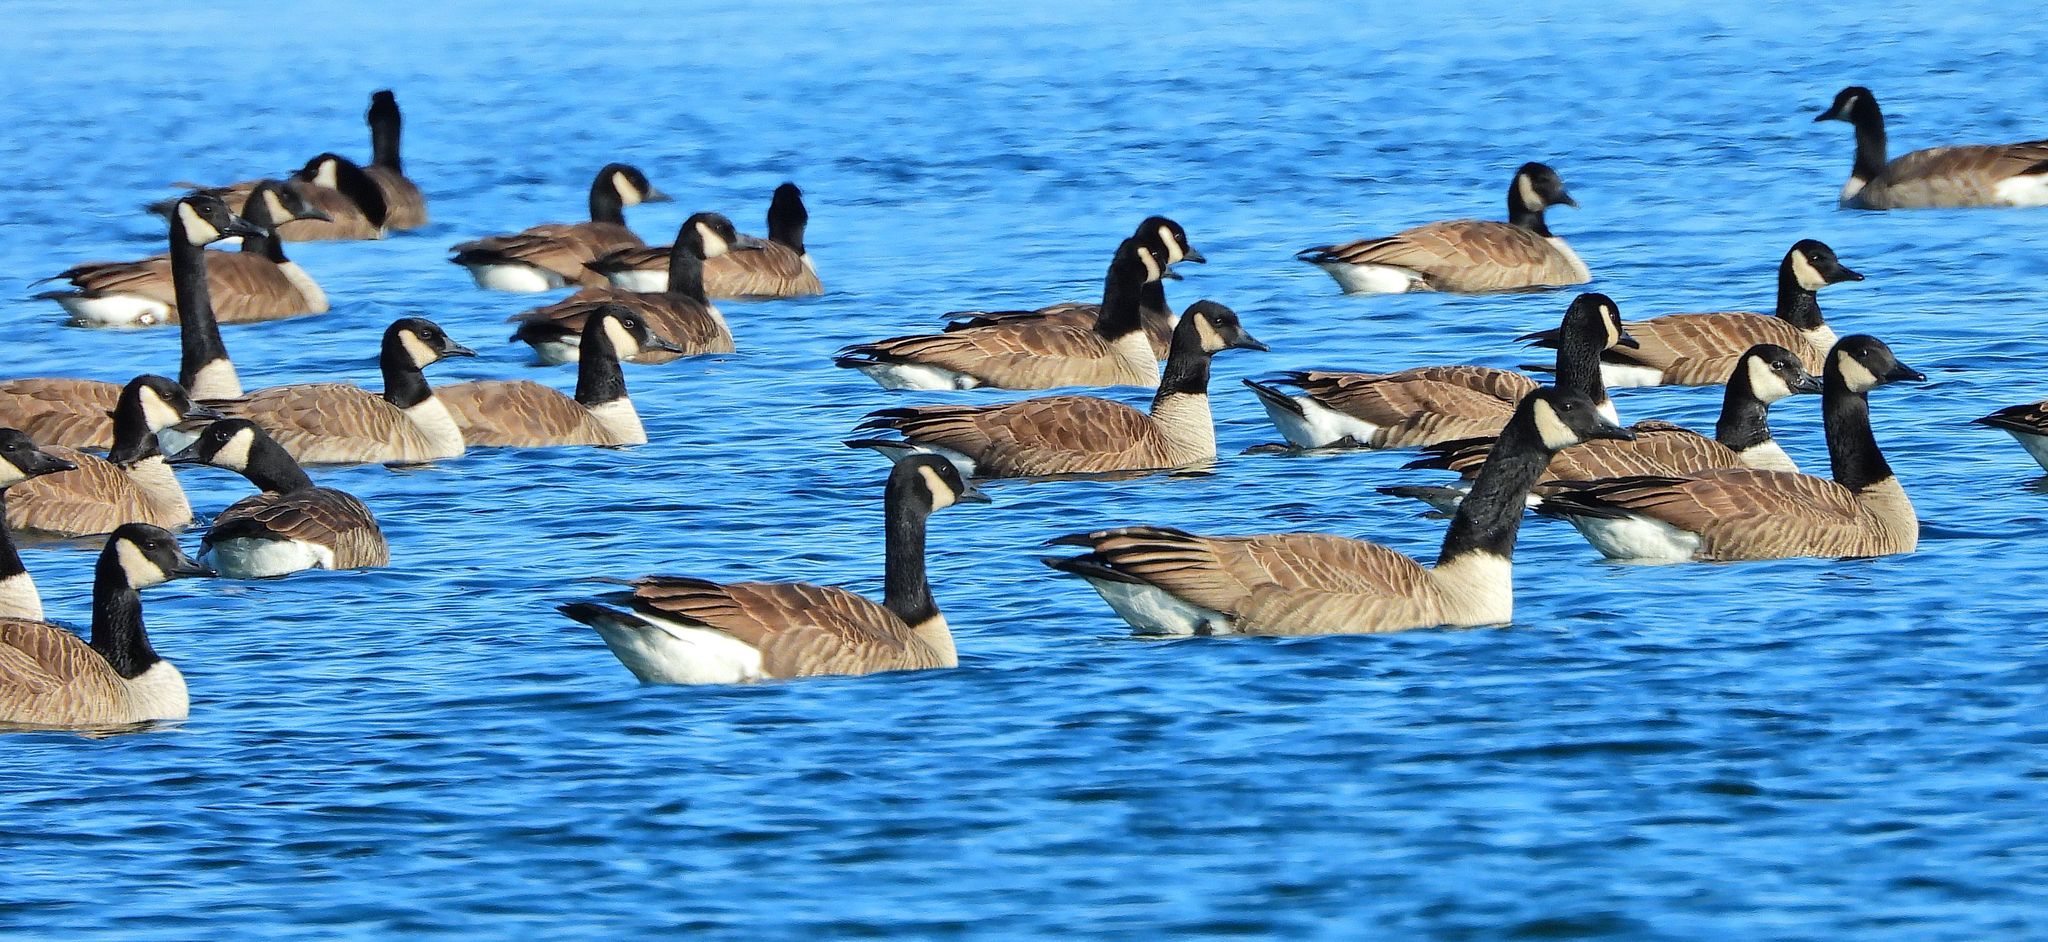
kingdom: Animalia
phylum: Chordata
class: Aves
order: Anseriformes
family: Anatidae
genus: Branta
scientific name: Branta canadensis
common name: Canada goose
